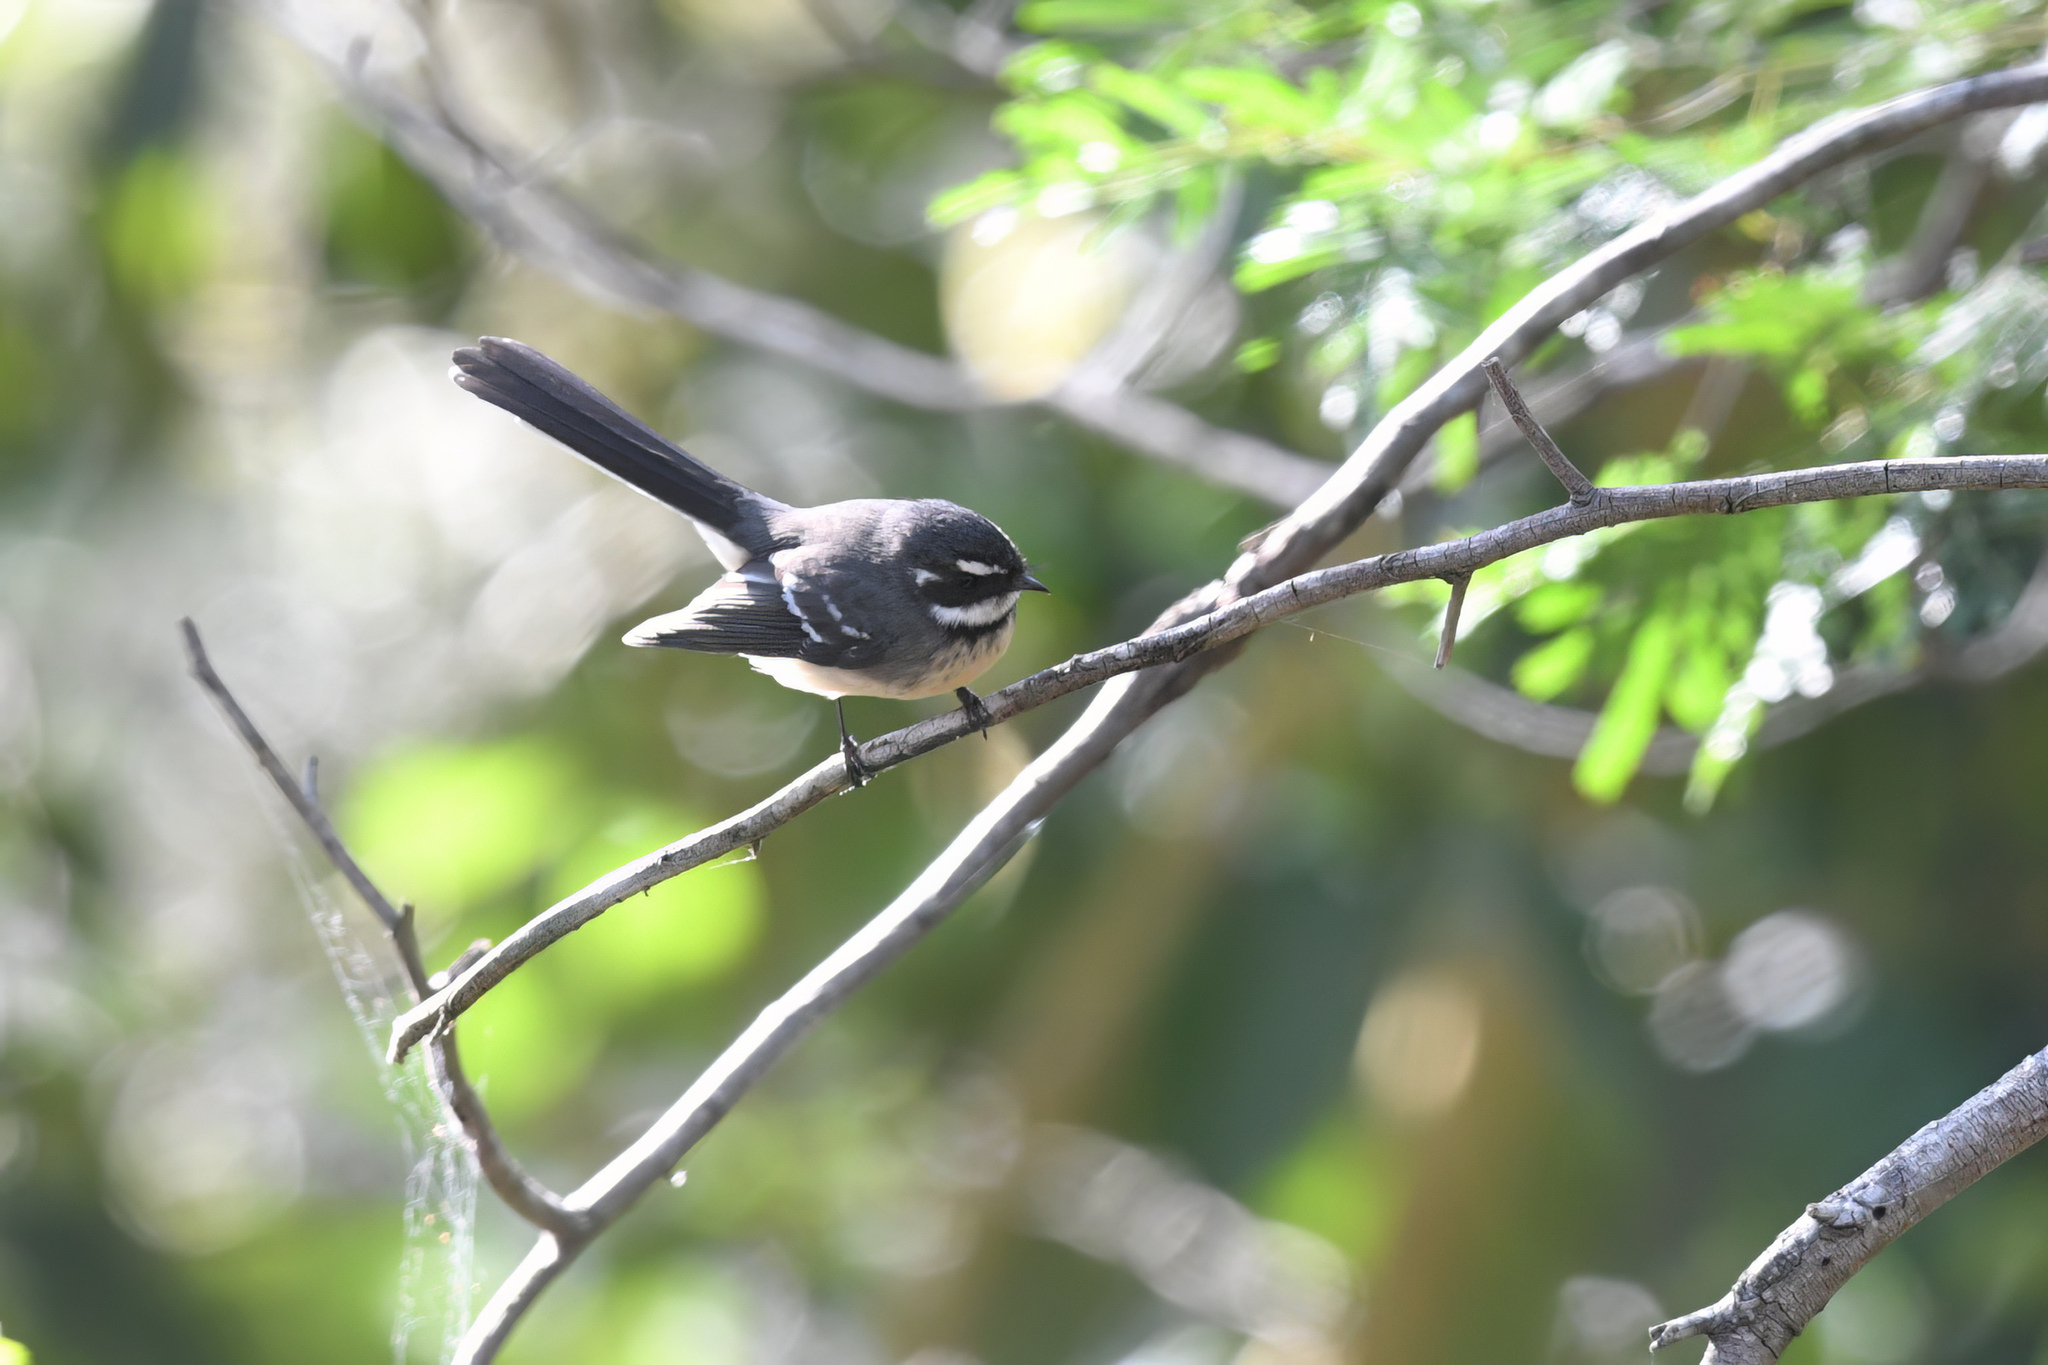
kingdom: Animalia
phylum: Chordata
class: Aves
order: Passeriformes
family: Rhipiduridae
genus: Rhipidura
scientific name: Rhipidura albiscapa
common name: Grey fantail
